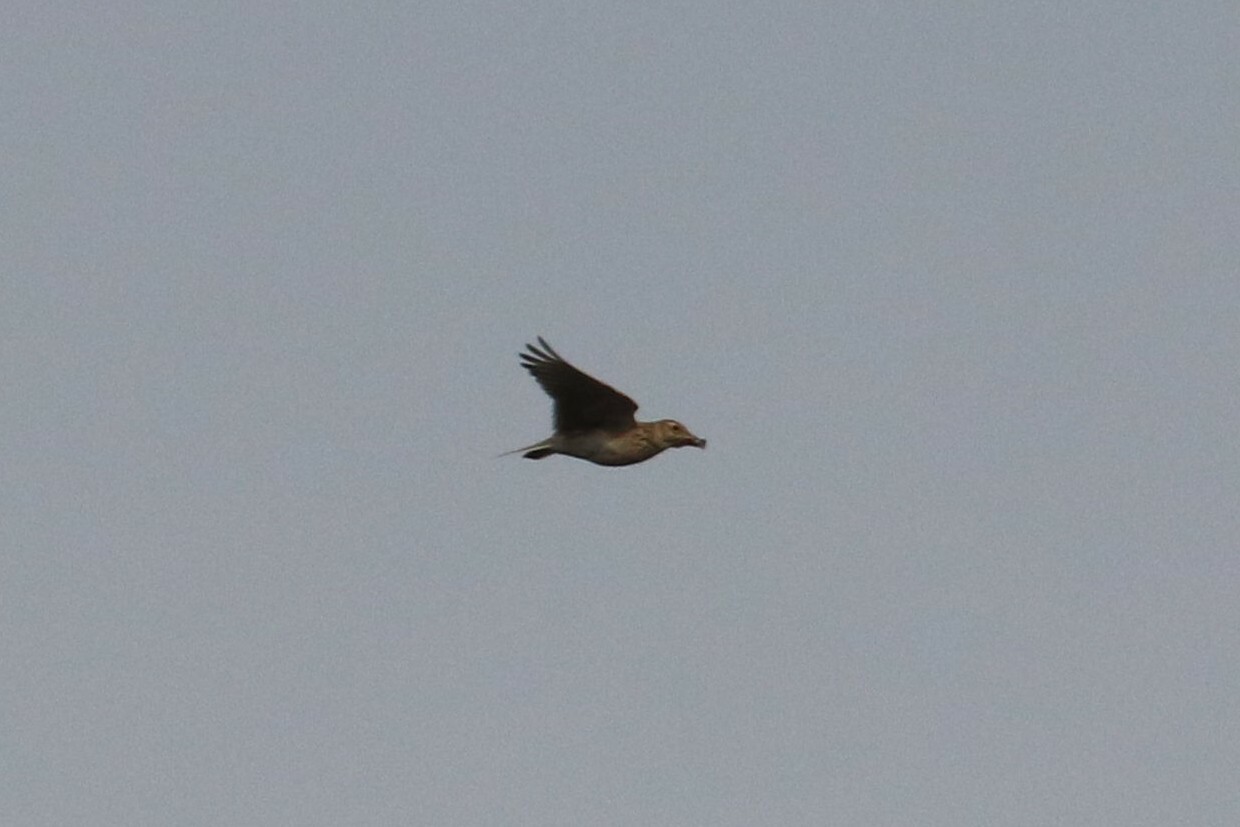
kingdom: Animalia
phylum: Chordata
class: Aves
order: Passeriformes
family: Alaudidae
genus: Alauda
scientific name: Alauda arvensis
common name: Eurasian skylark
